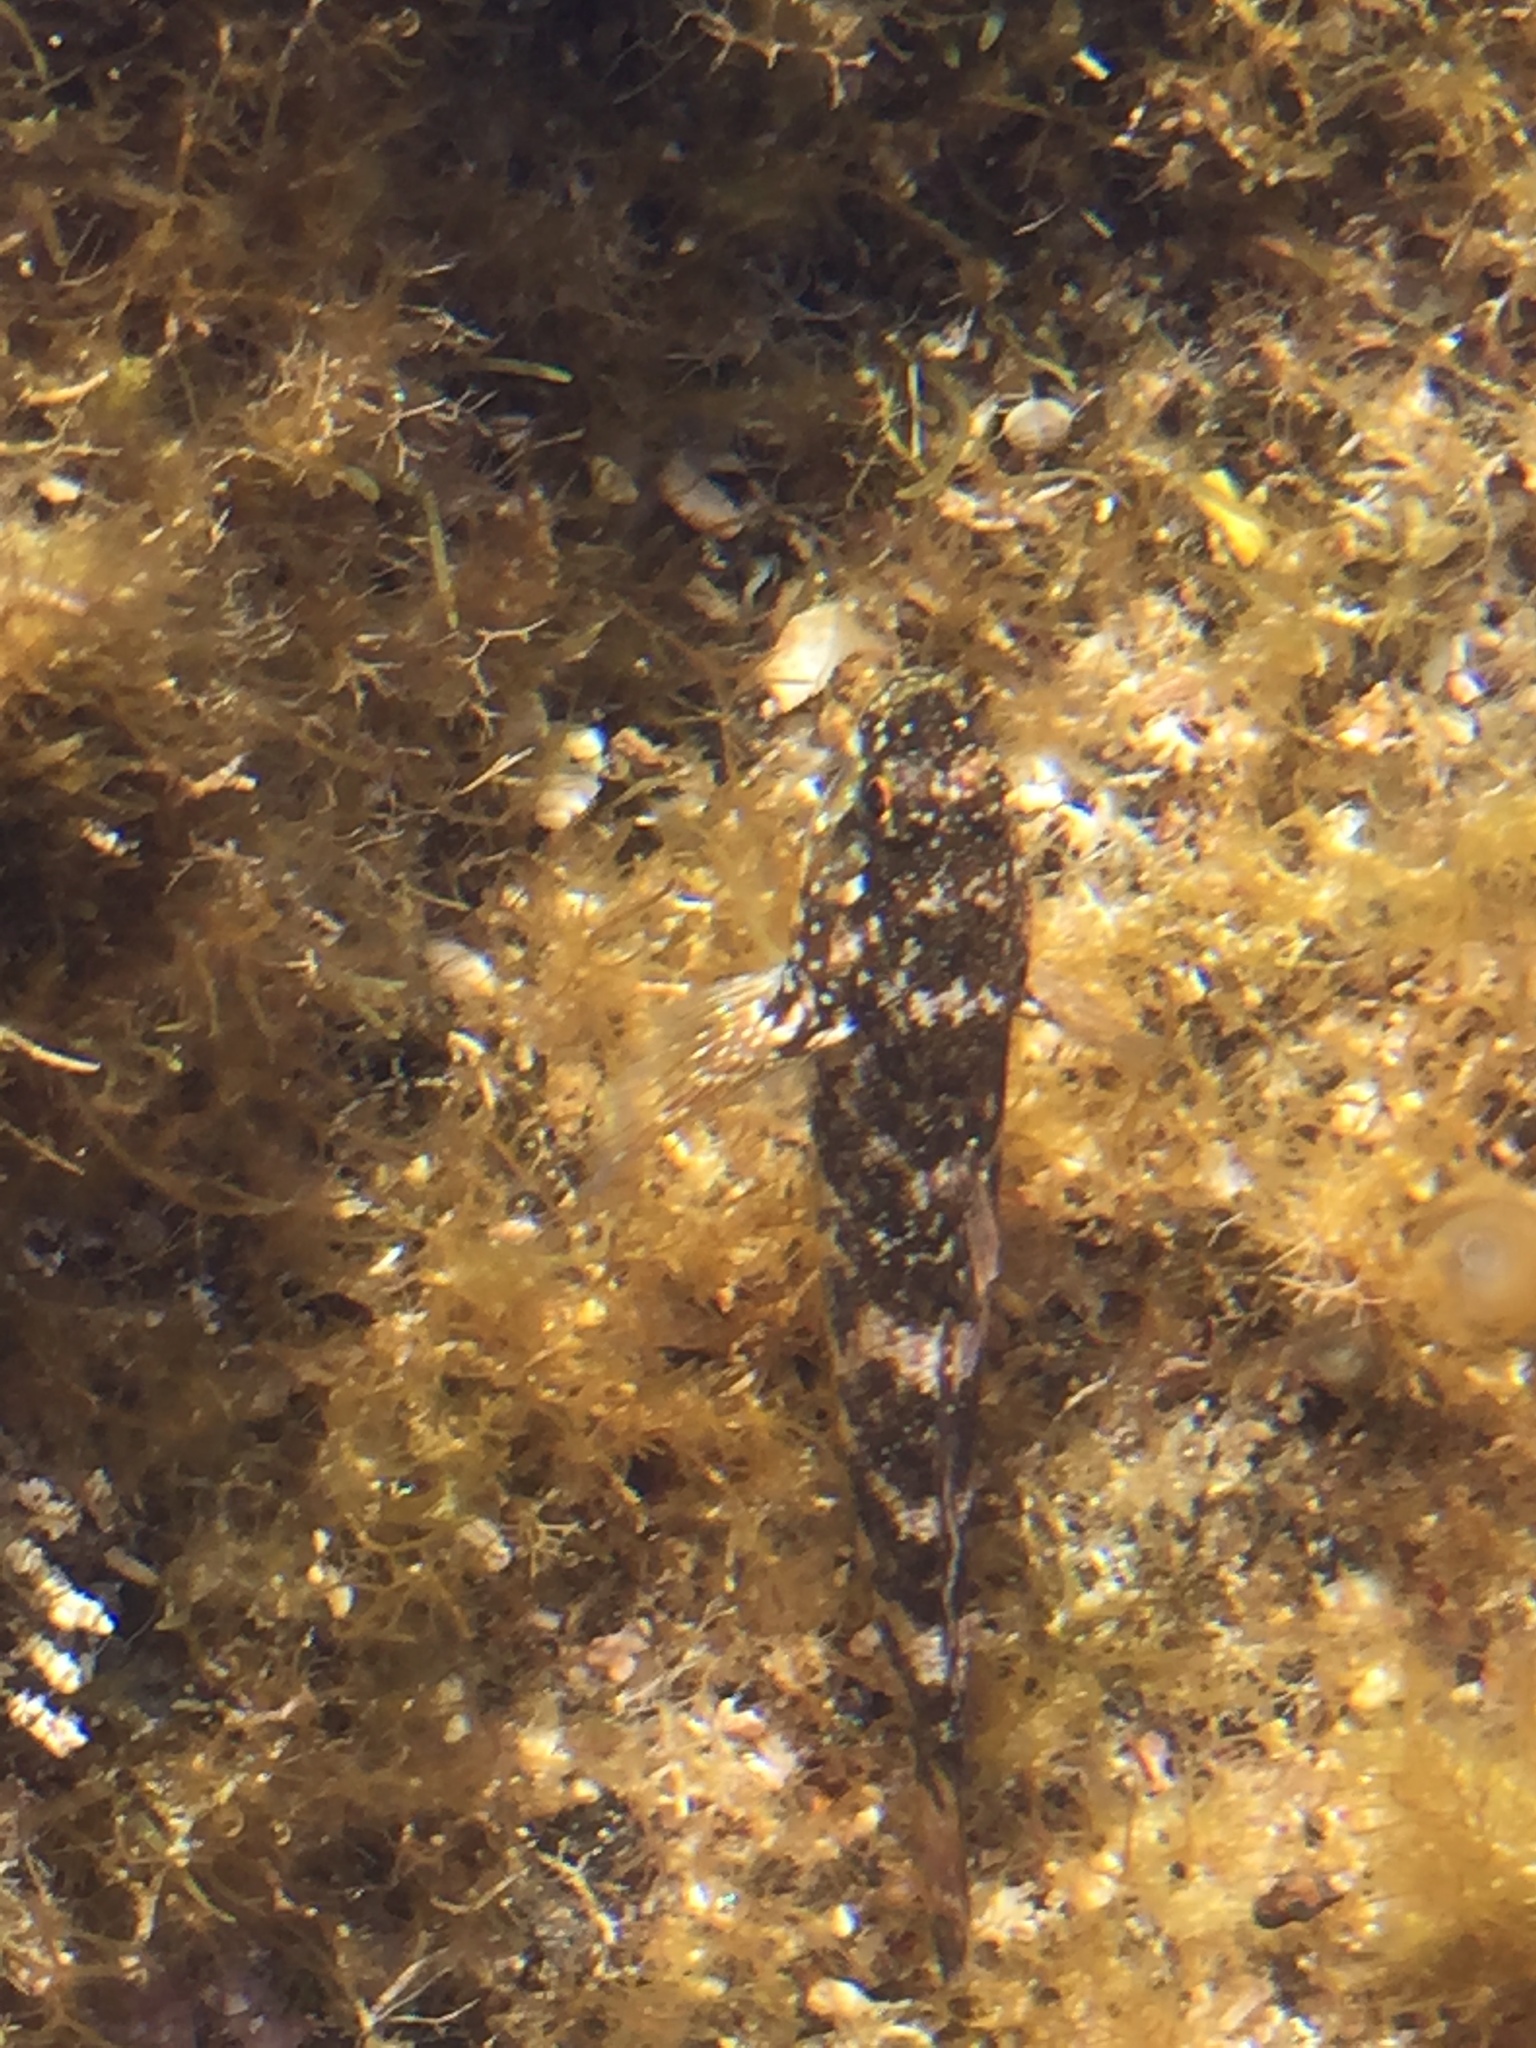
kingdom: Animalia
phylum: Chordata
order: Perciformes
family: Gobiidae
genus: Mauligobius
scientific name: Mauligobius maderensis
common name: Rock goby
